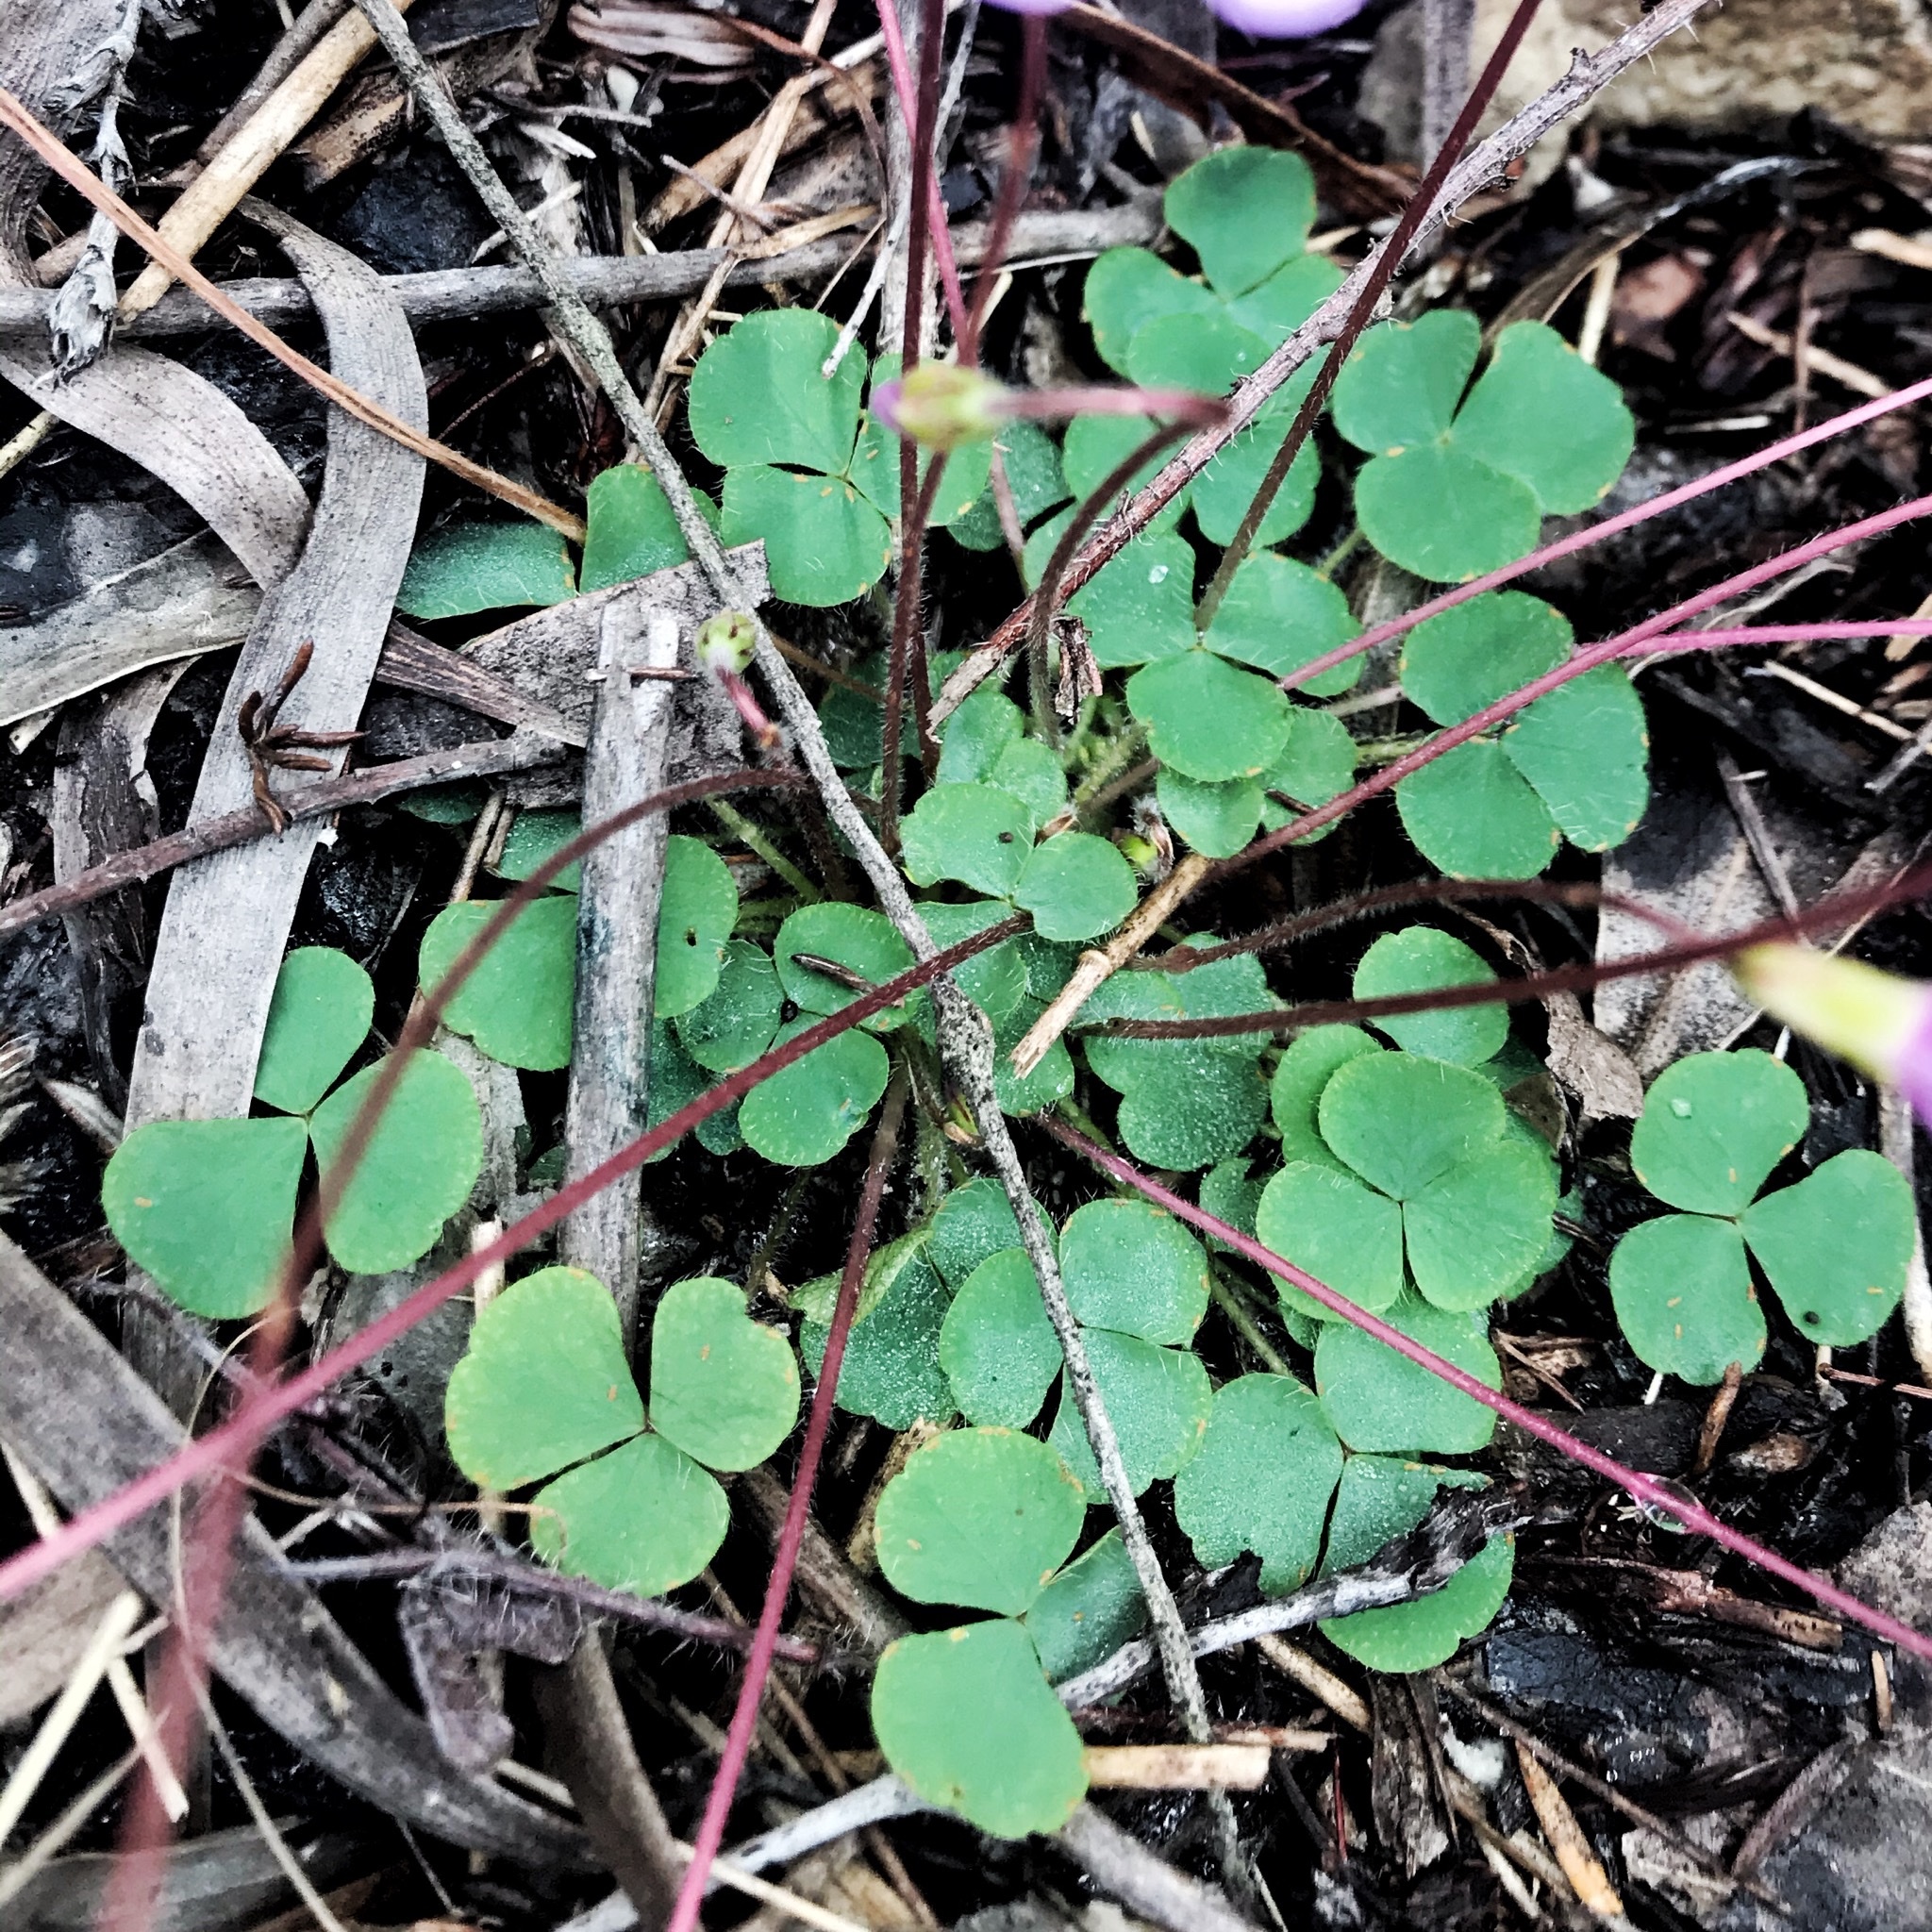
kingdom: Plantae
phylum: Tracheophyta
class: Magnoliopsida
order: Oxalidales
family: Oxalidaceae
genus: Oxalis
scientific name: Oxalis imbricata
